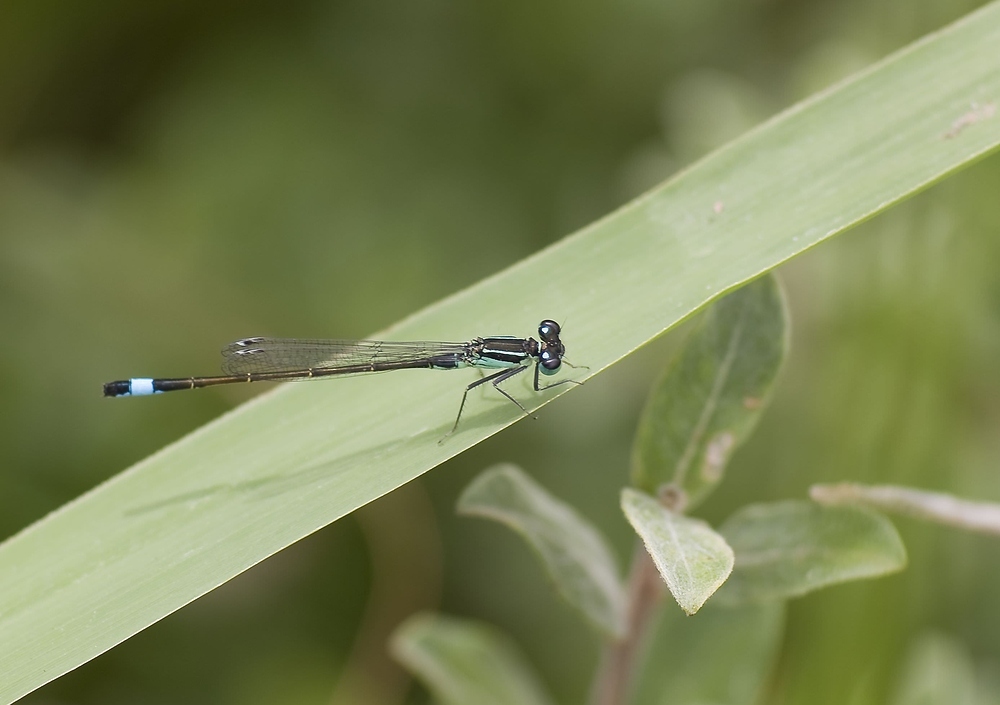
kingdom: Animalia
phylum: Arthropoda
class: Insecta
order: Odonata
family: Coenagrionidae
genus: Ischnura
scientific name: Ischnura elegans
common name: Blue-tailed damselfly
